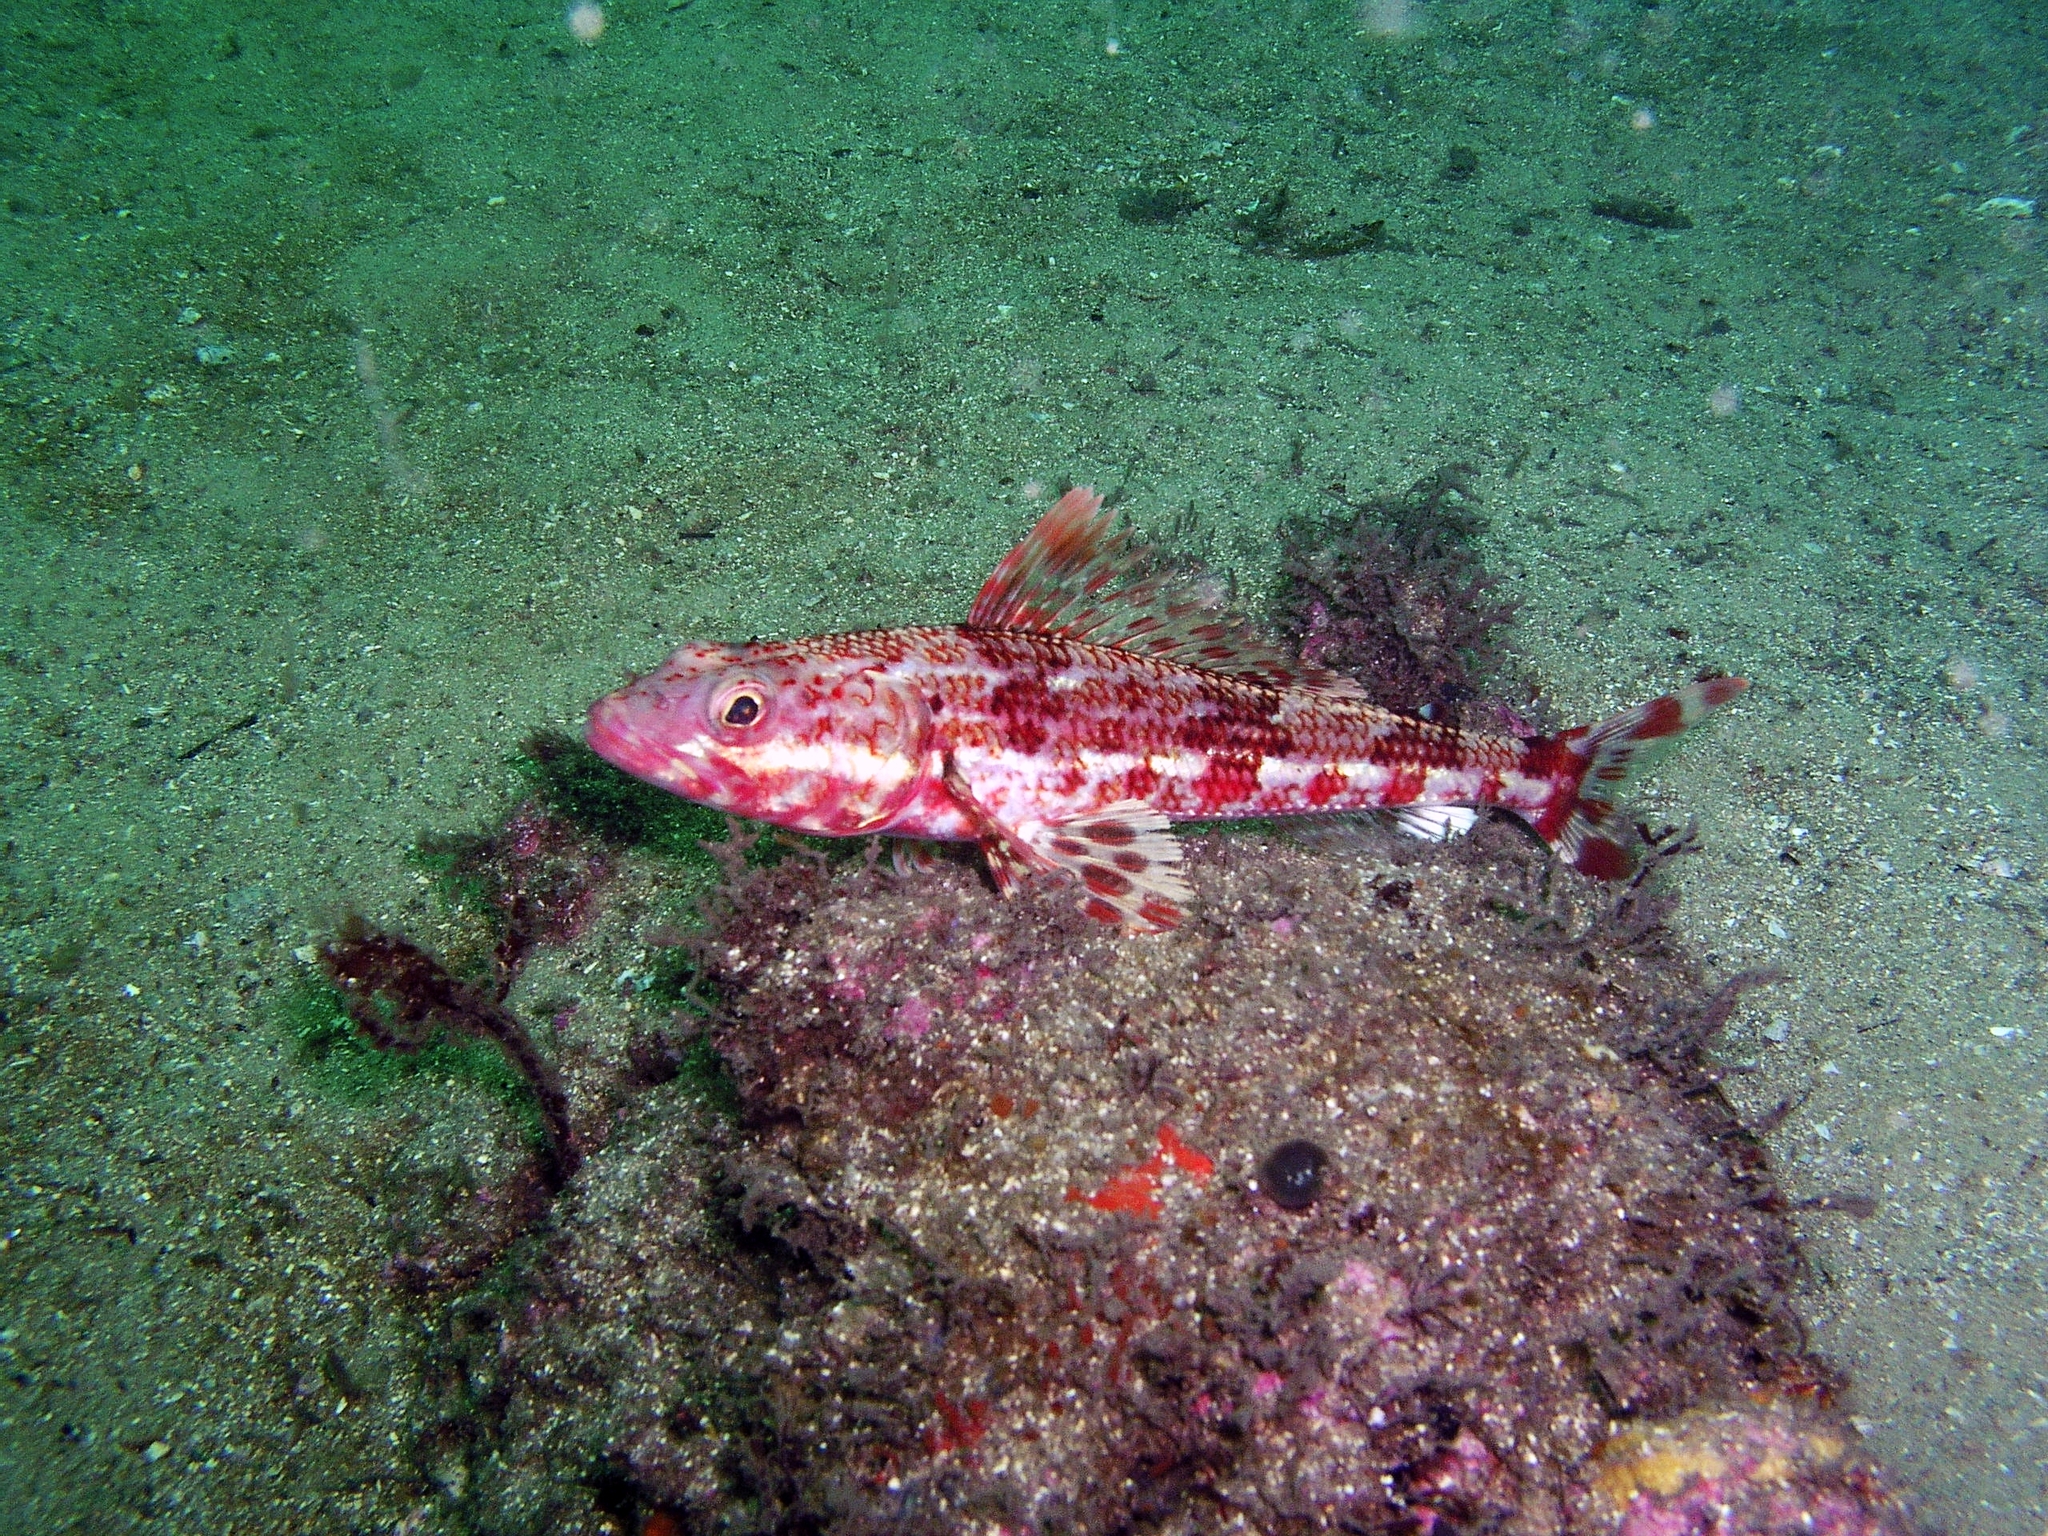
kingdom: Animalia
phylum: Chordata
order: Aulopiformes
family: Aulopidae
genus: Latropiscis
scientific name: Latropiscis purpurissatus
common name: Sergeant baker
